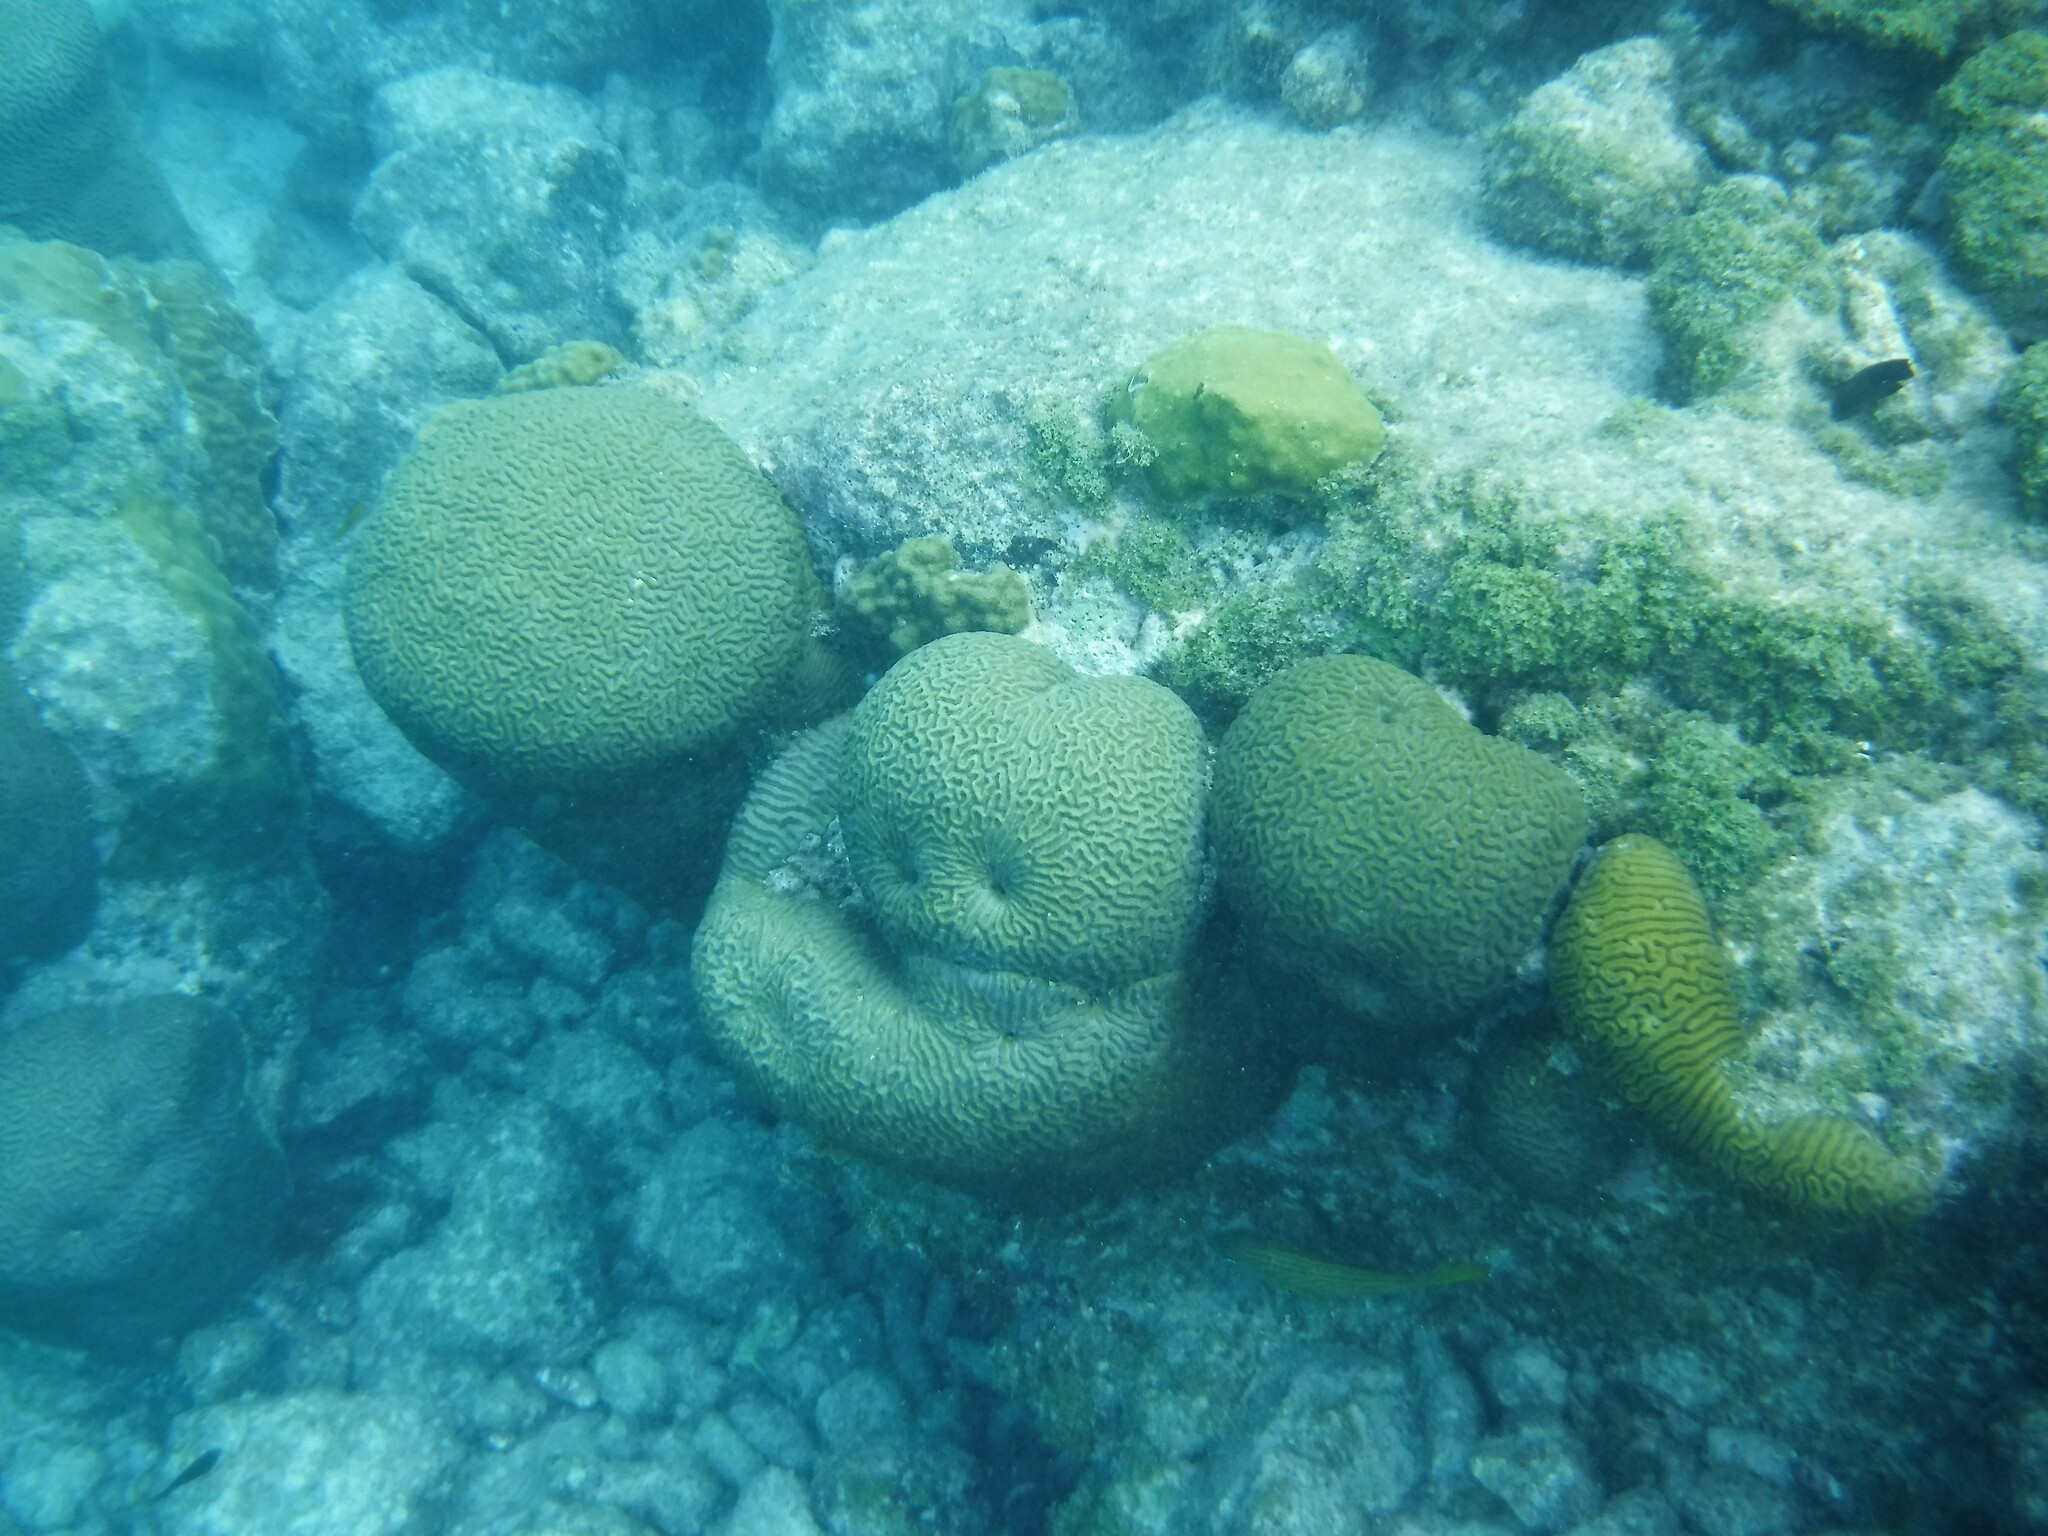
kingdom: Animalia
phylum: Cnidaria
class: Anthozoa
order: Scleractinia
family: Faviidae
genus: Pseudodiploria
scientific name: Pseudodiploria strigosa
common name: Symmetrical brain coral
